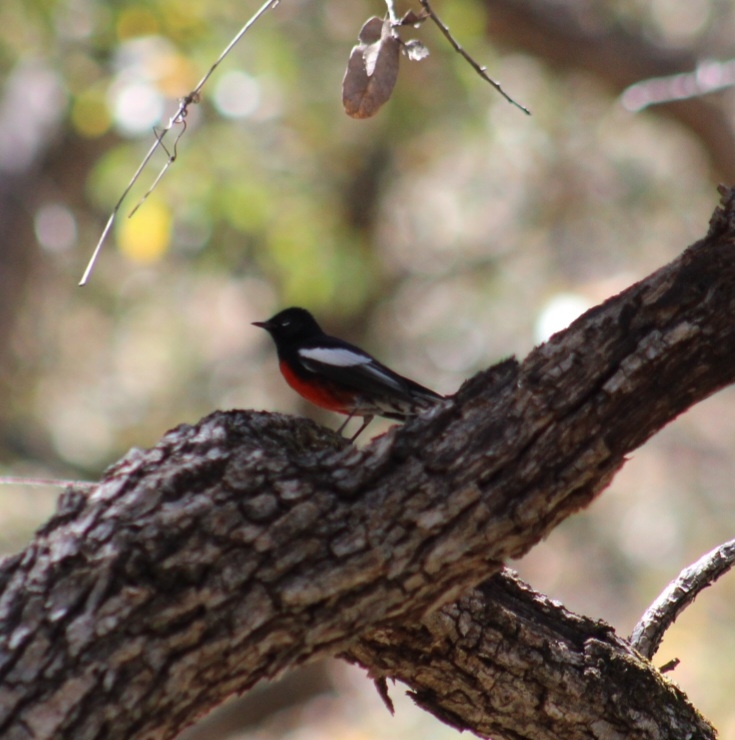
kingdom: Animalia
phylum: Chordata
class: Aves
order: Passeriformes
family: Parulidae
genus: Myioborus
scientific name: Myioborus pictus
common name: Painted whitestart
